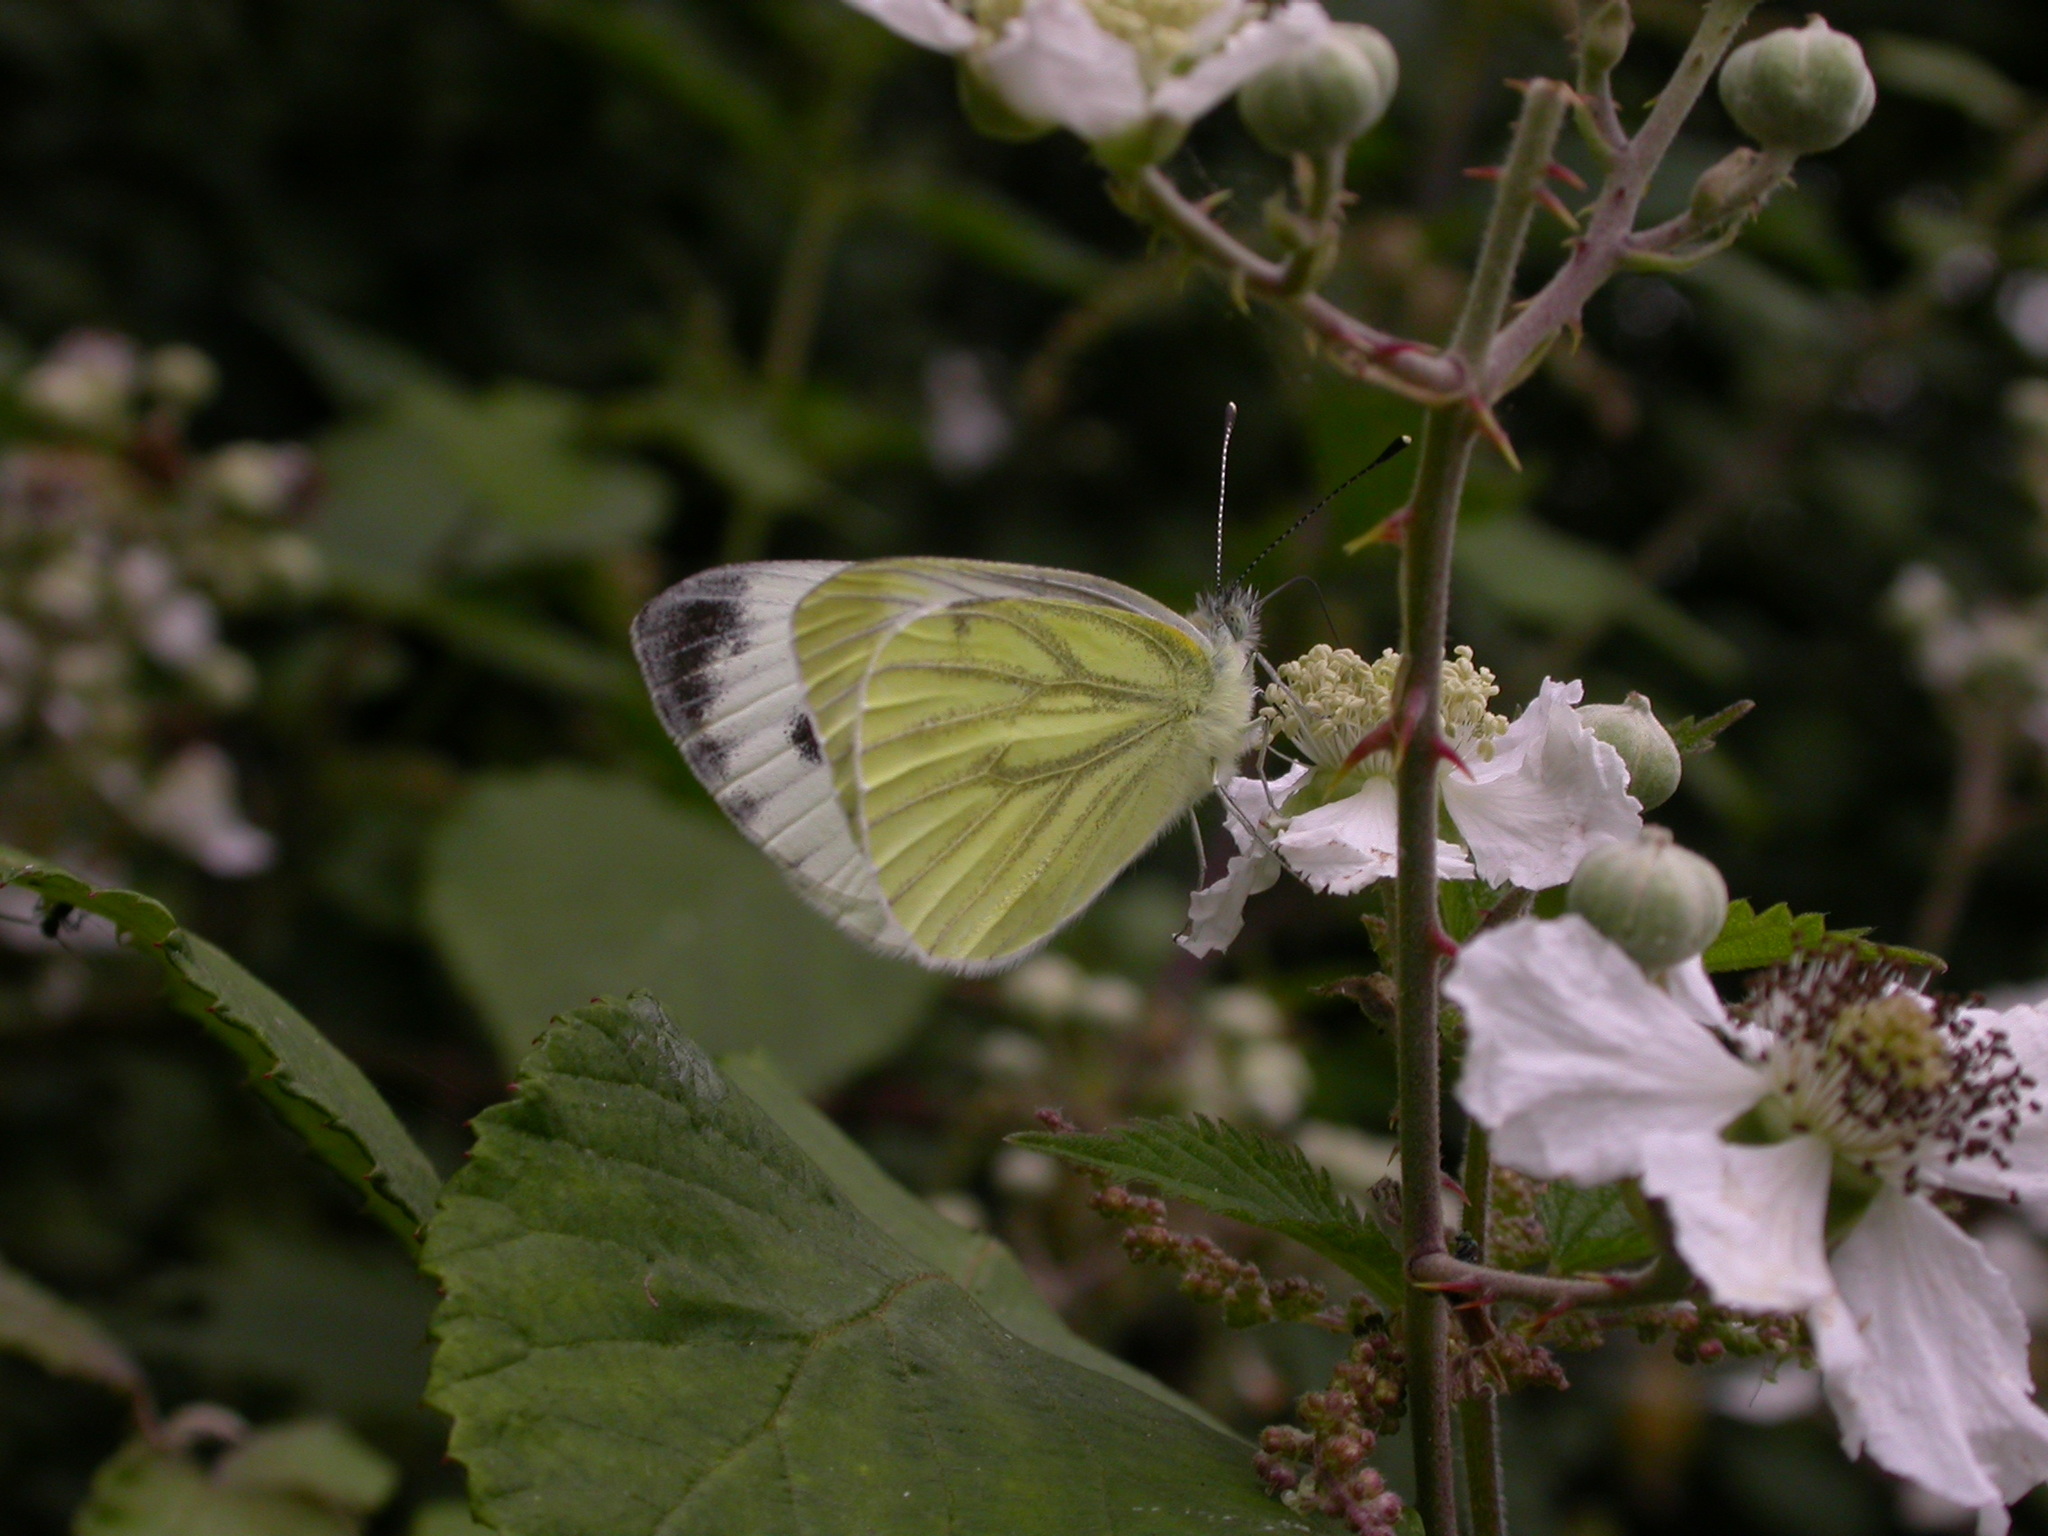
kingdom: Animalia
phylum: Arthropoda
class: Insecta
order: Lepidoptera
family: Pieridae
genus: Pieris
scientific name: Pieris napi
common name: Green-veined white
